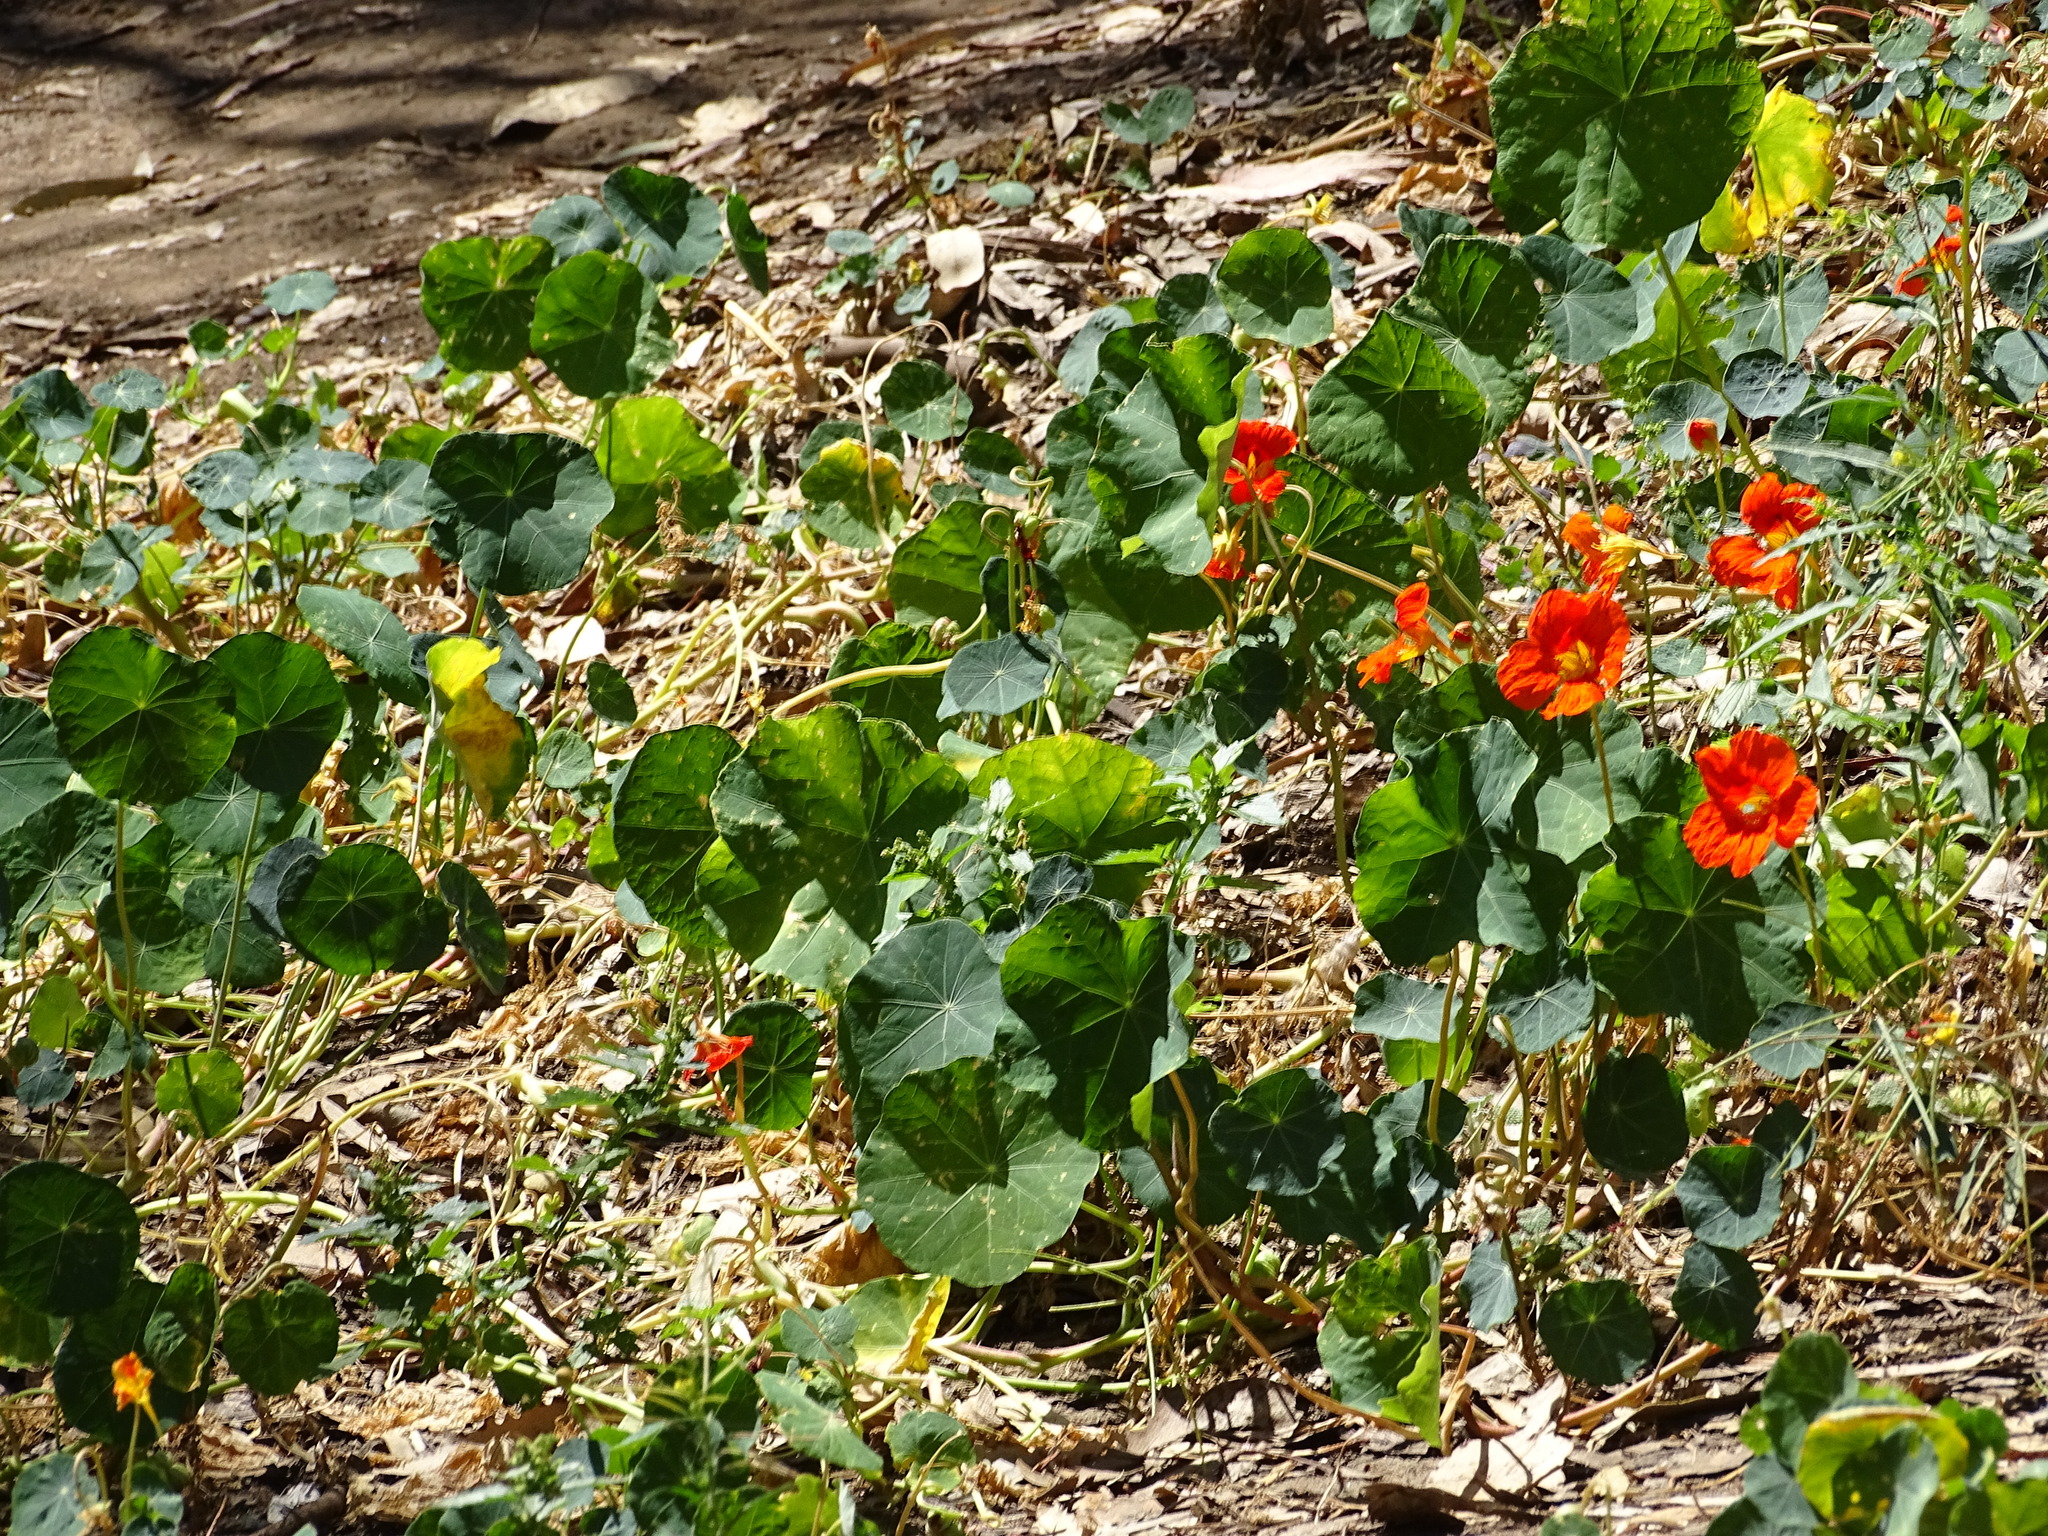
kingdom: Plantae
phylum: Tracheophyta
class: Magnoliopsida
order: Brassicales
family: Tropaeolaceae
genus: Tropaeolum
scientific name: Tropaeolum majus
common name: Nasturtium
